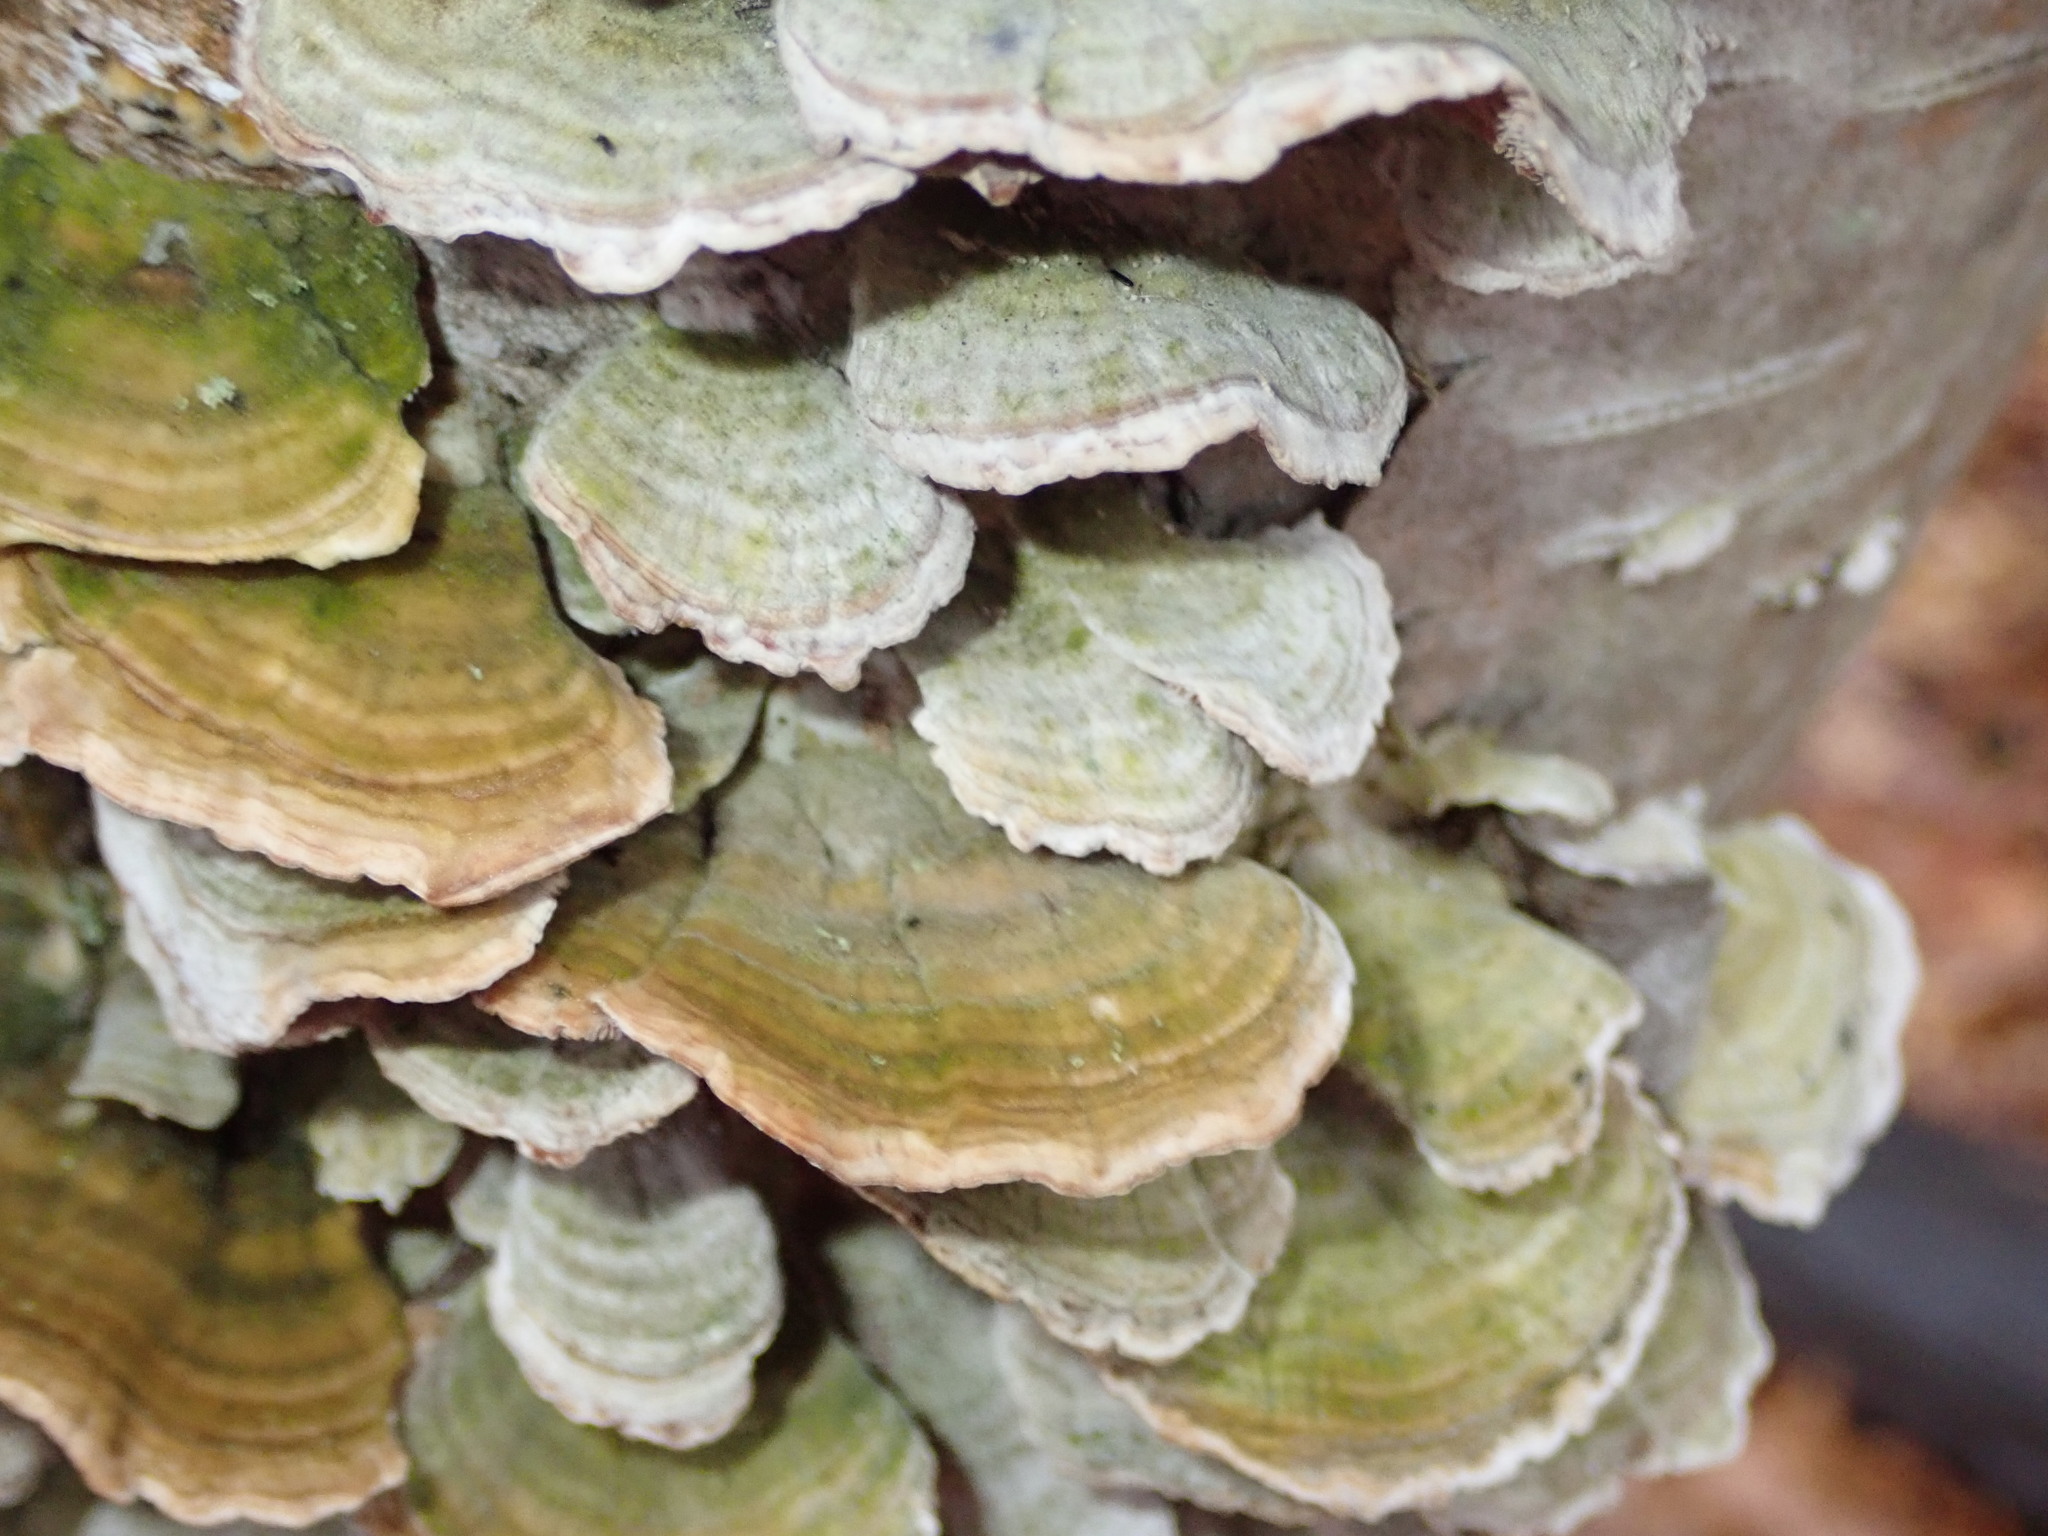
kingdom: Fungi
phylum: Basidiomycota
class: Agaricomycetes
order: Hymenochaetales
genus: Trichaptum
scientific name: Trichaptum biforme
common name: Violet-toothed polypore
